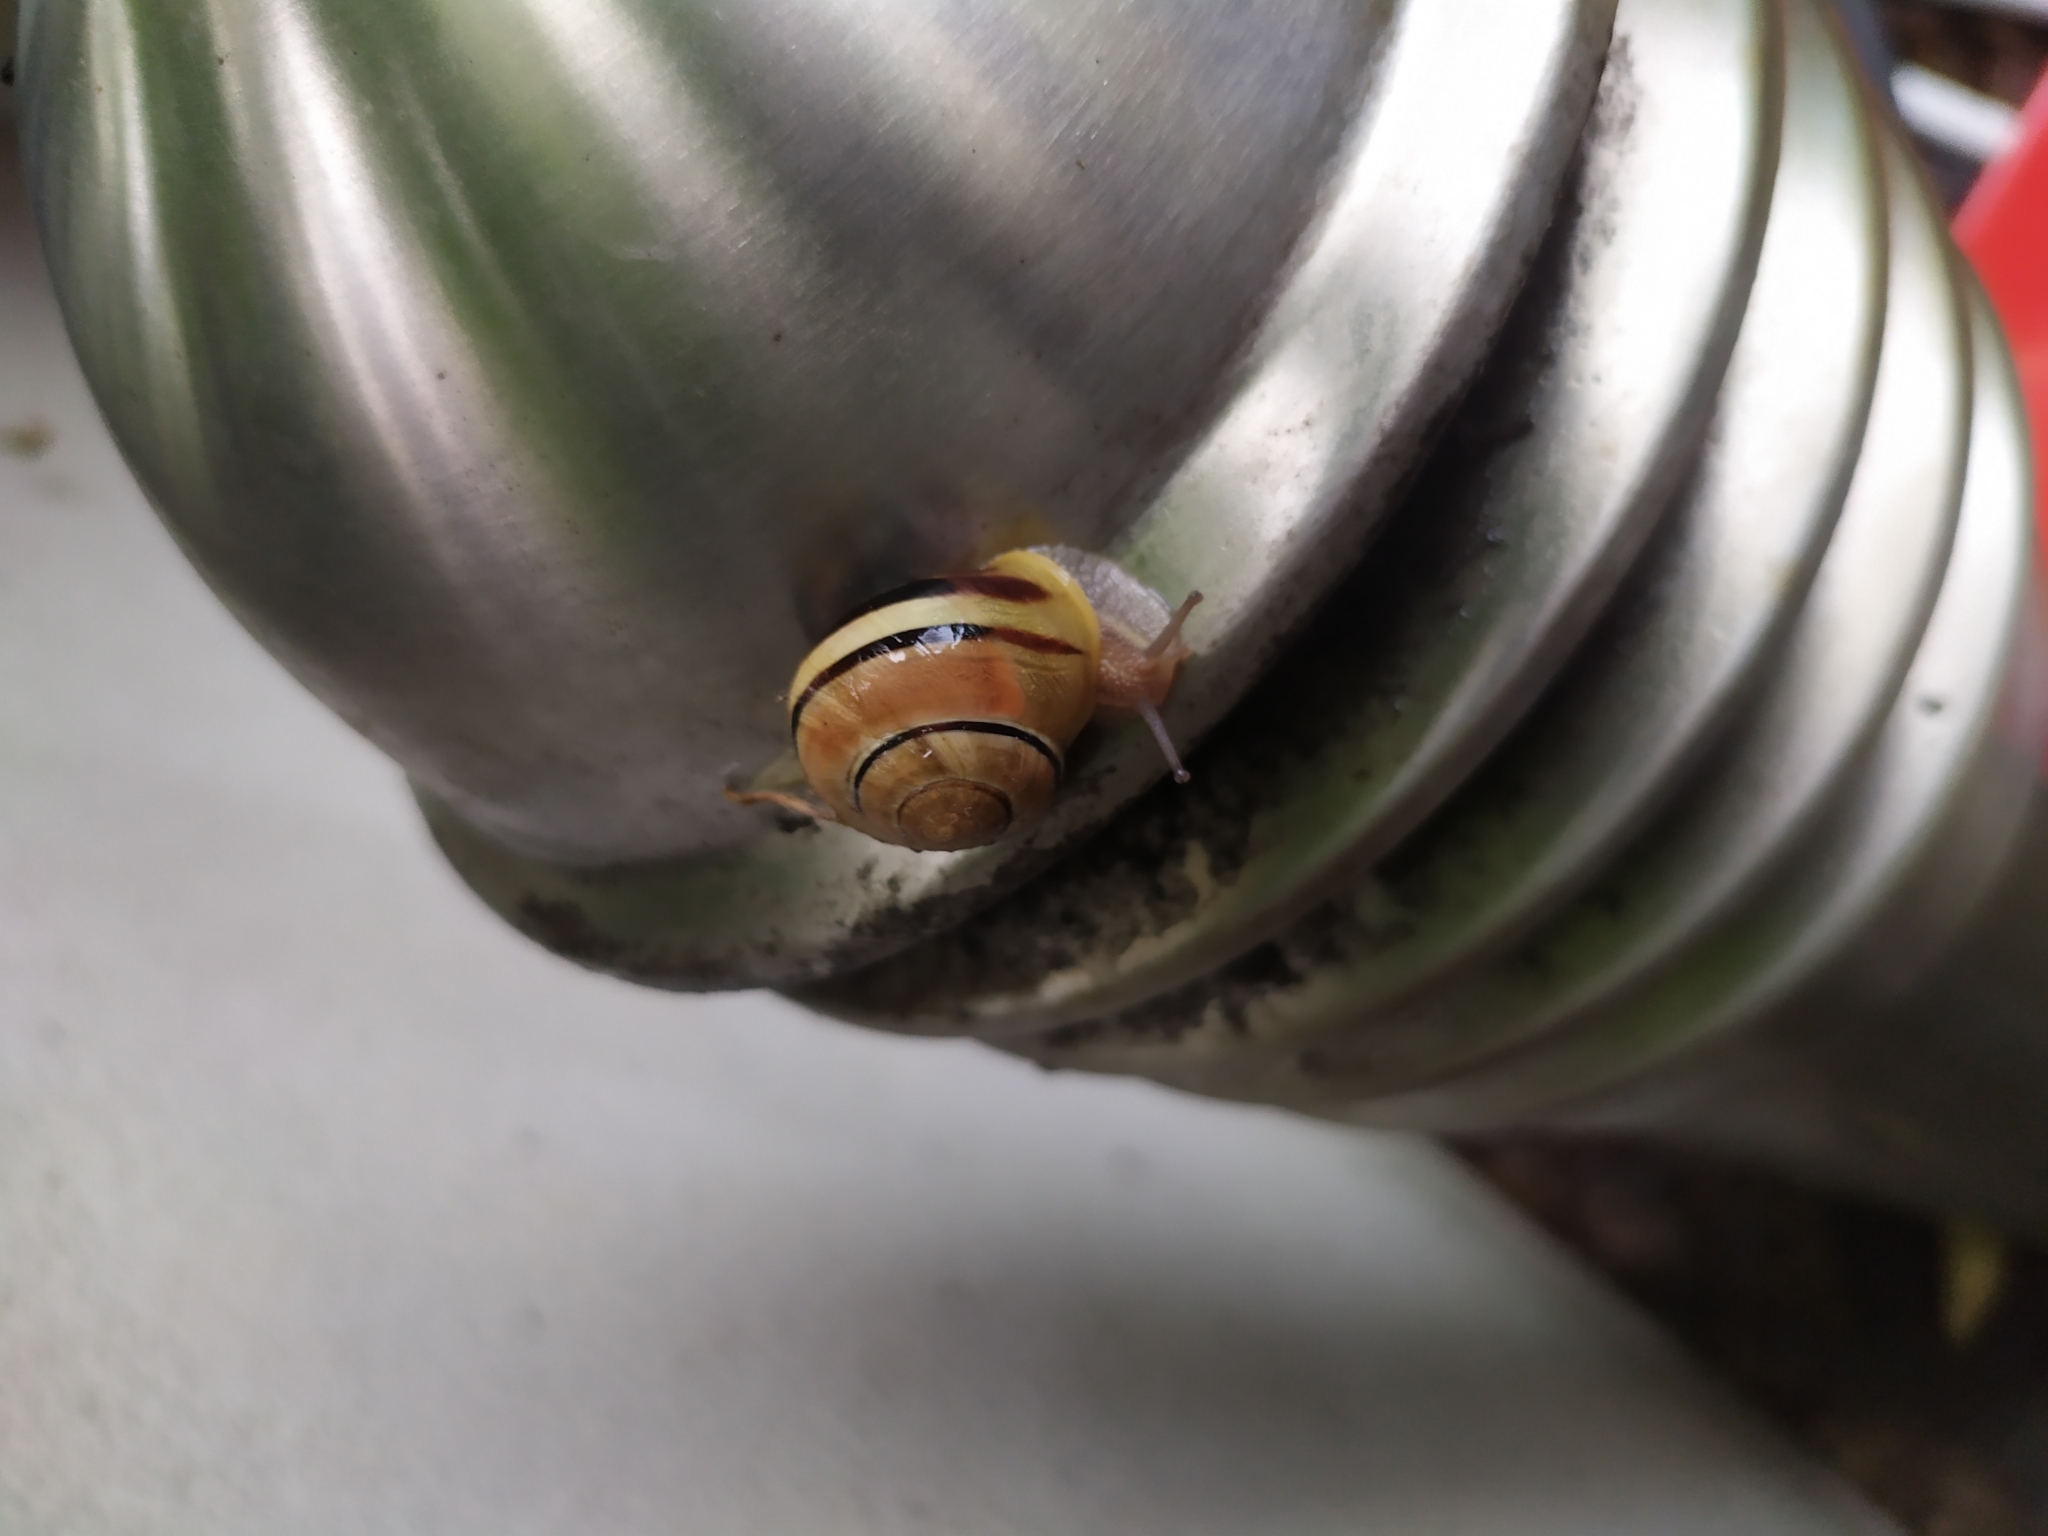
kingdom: Animalia
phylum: Mollusca
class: Gastropoda
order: Stylommatophora
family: Helicidae
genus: Cepaea
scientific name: Cepaea nemoralis
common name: Grovesnail
